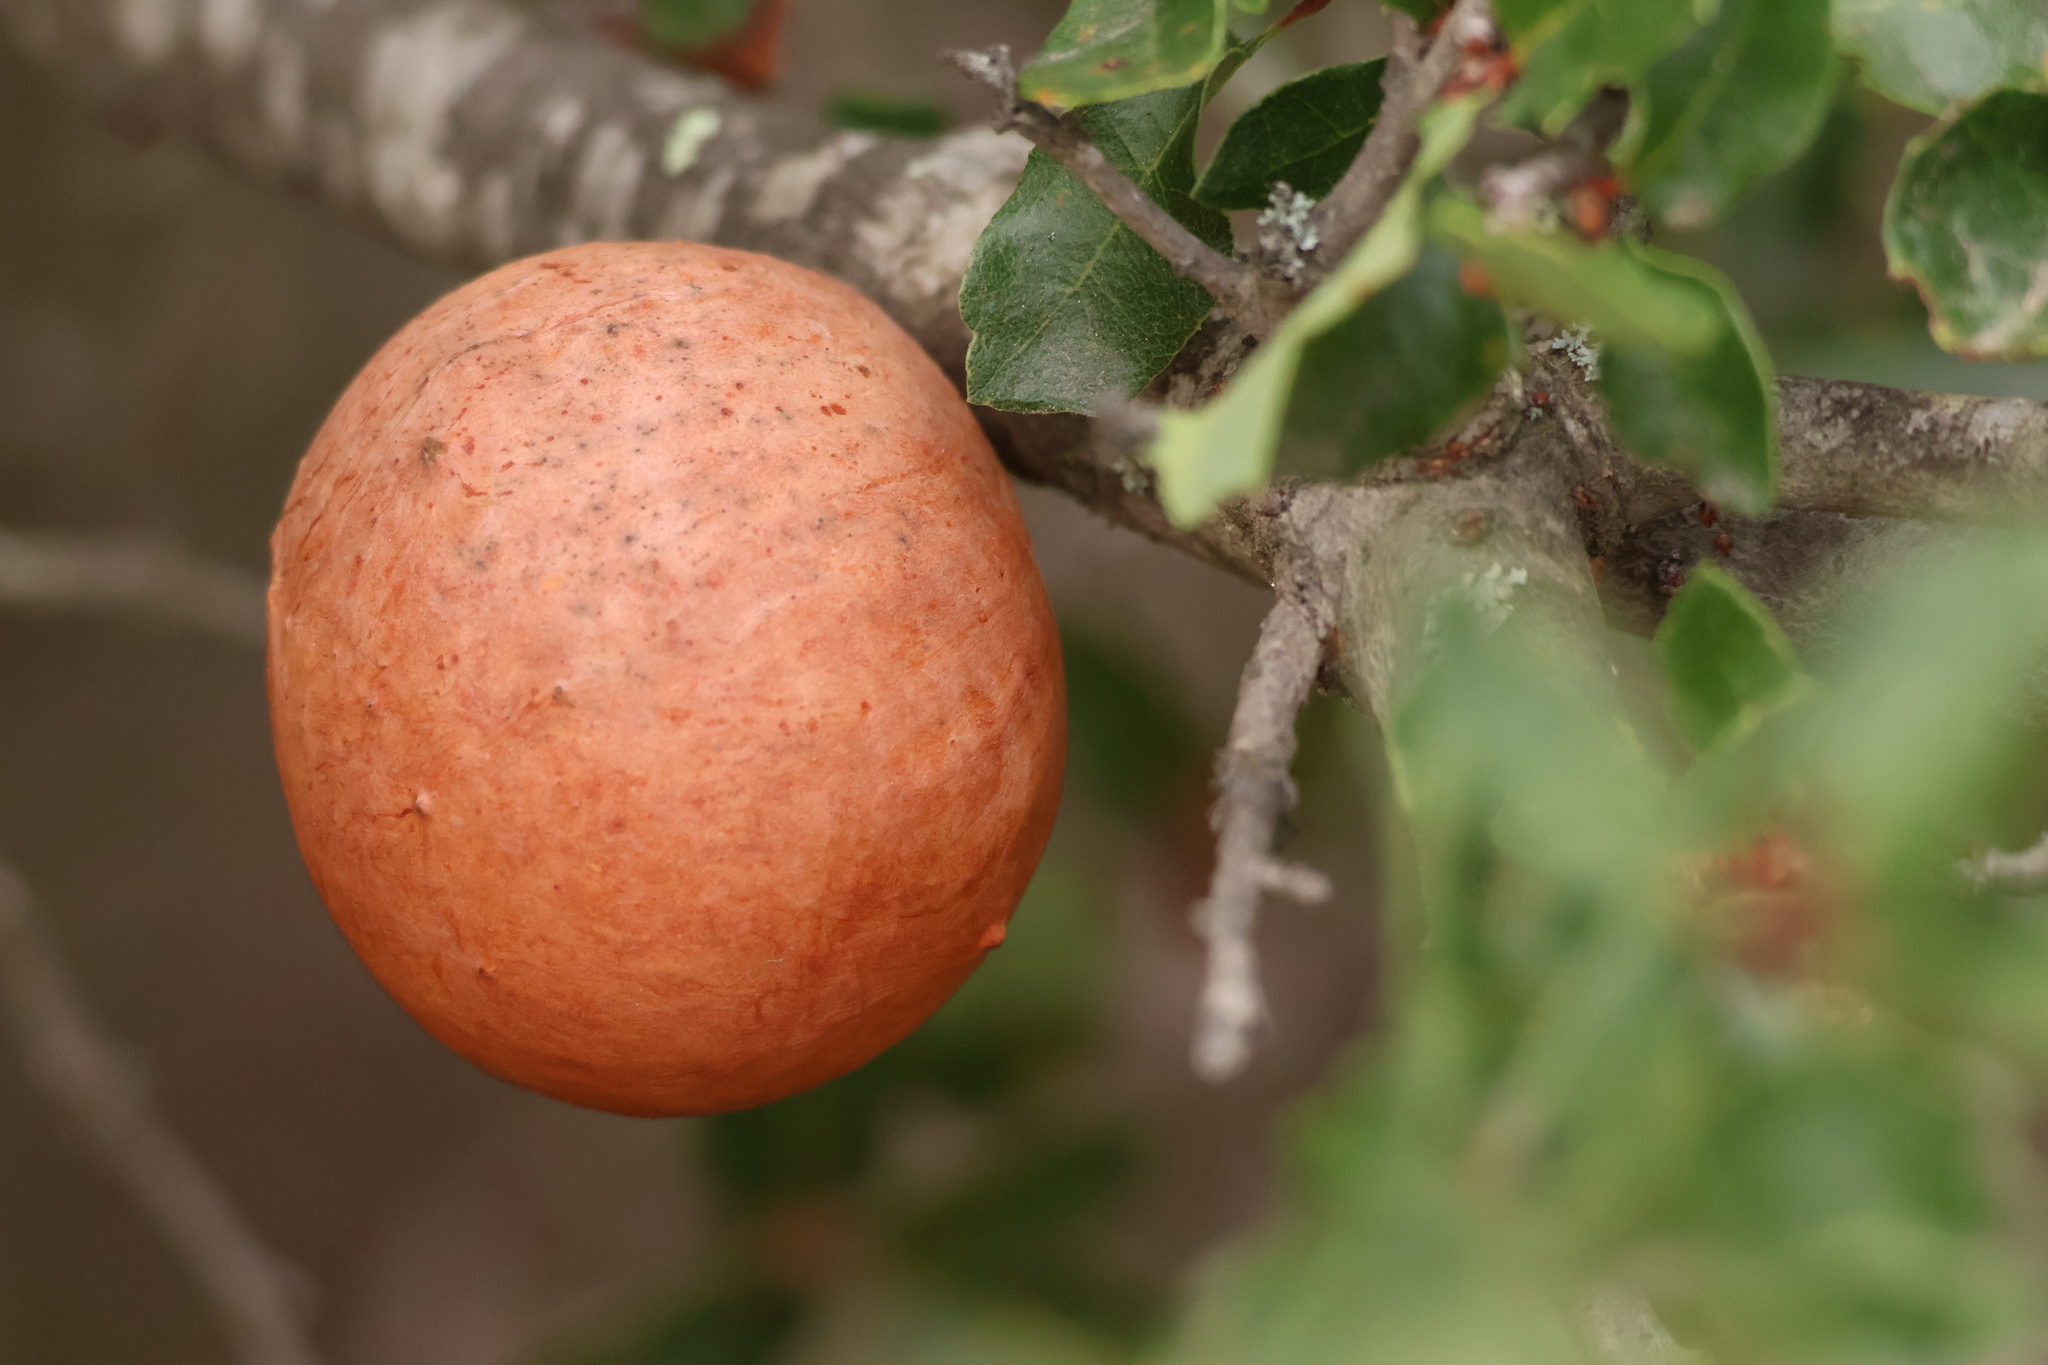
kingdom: Animalia
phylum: Arthropoda
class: Insecta
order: Hymenoptera
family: Cynipidae
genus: Andricus
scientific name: Andricus quercuscalifornicus
